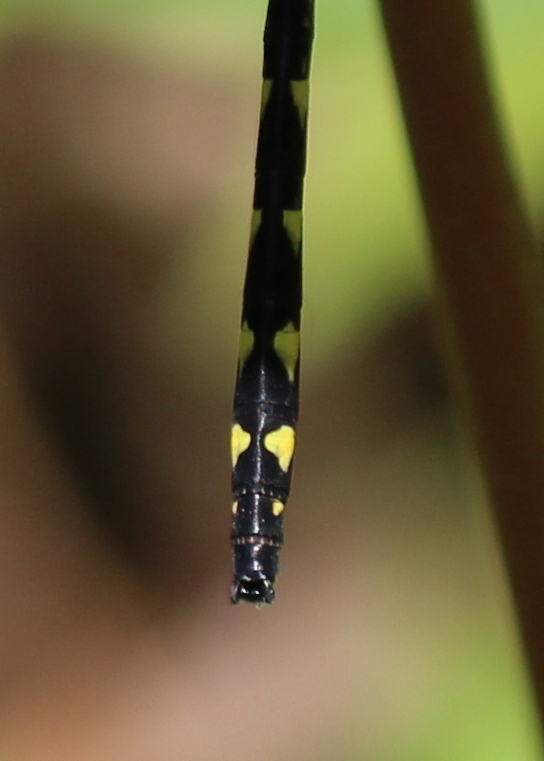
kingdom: Animalia
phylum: Arthropoda
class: Insecta
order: Odonata
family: Cordulegastridae
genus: Cordulegaster
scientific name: Cordulegaster diastatops
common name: Delta-spotted spiketail
